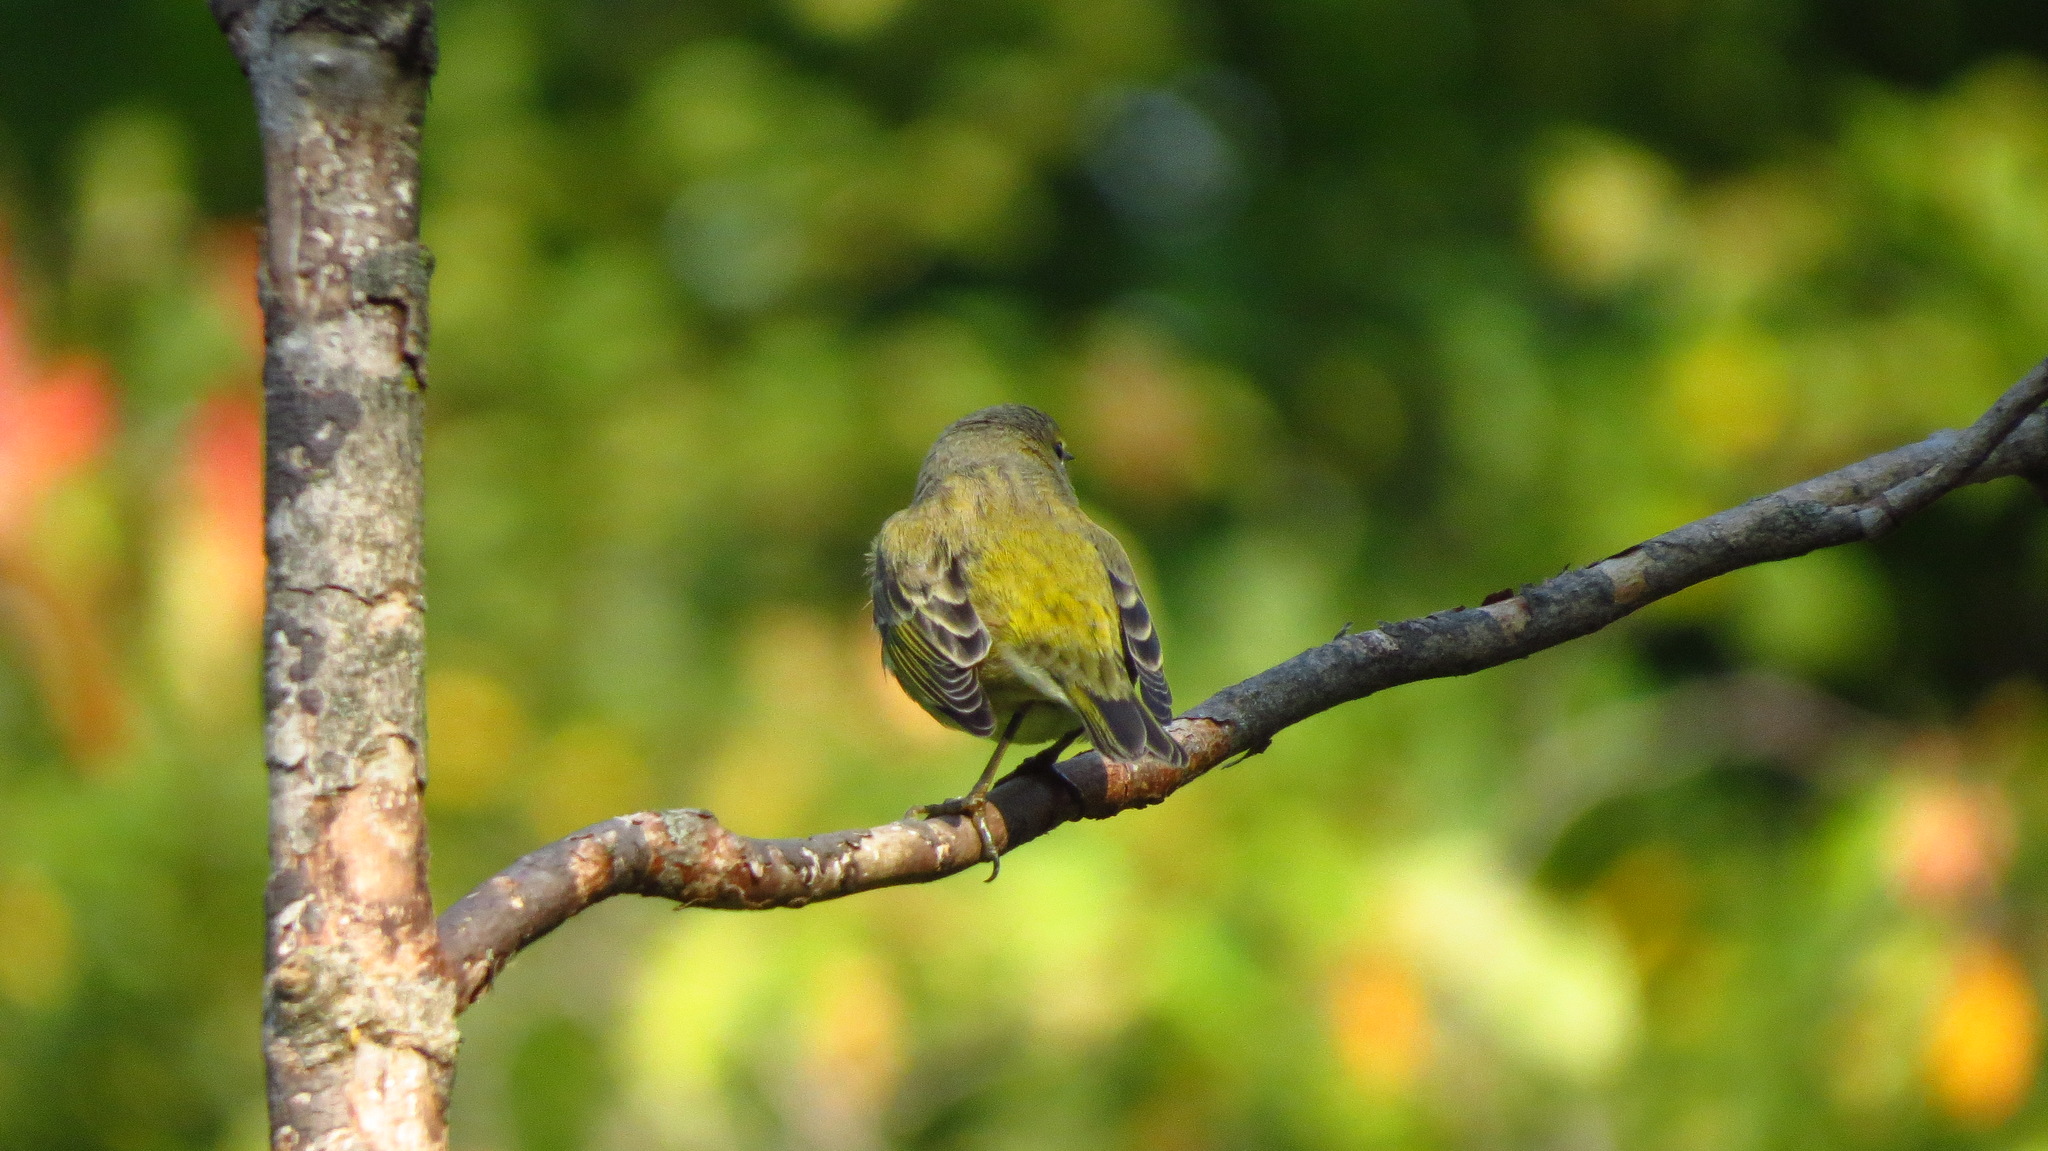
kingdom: Animalia
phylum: Chordata
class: Aves
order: Passeriformes
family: Parulidae
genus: Setophaga
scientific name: Setophaga tigrina
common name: Cape may warbler
